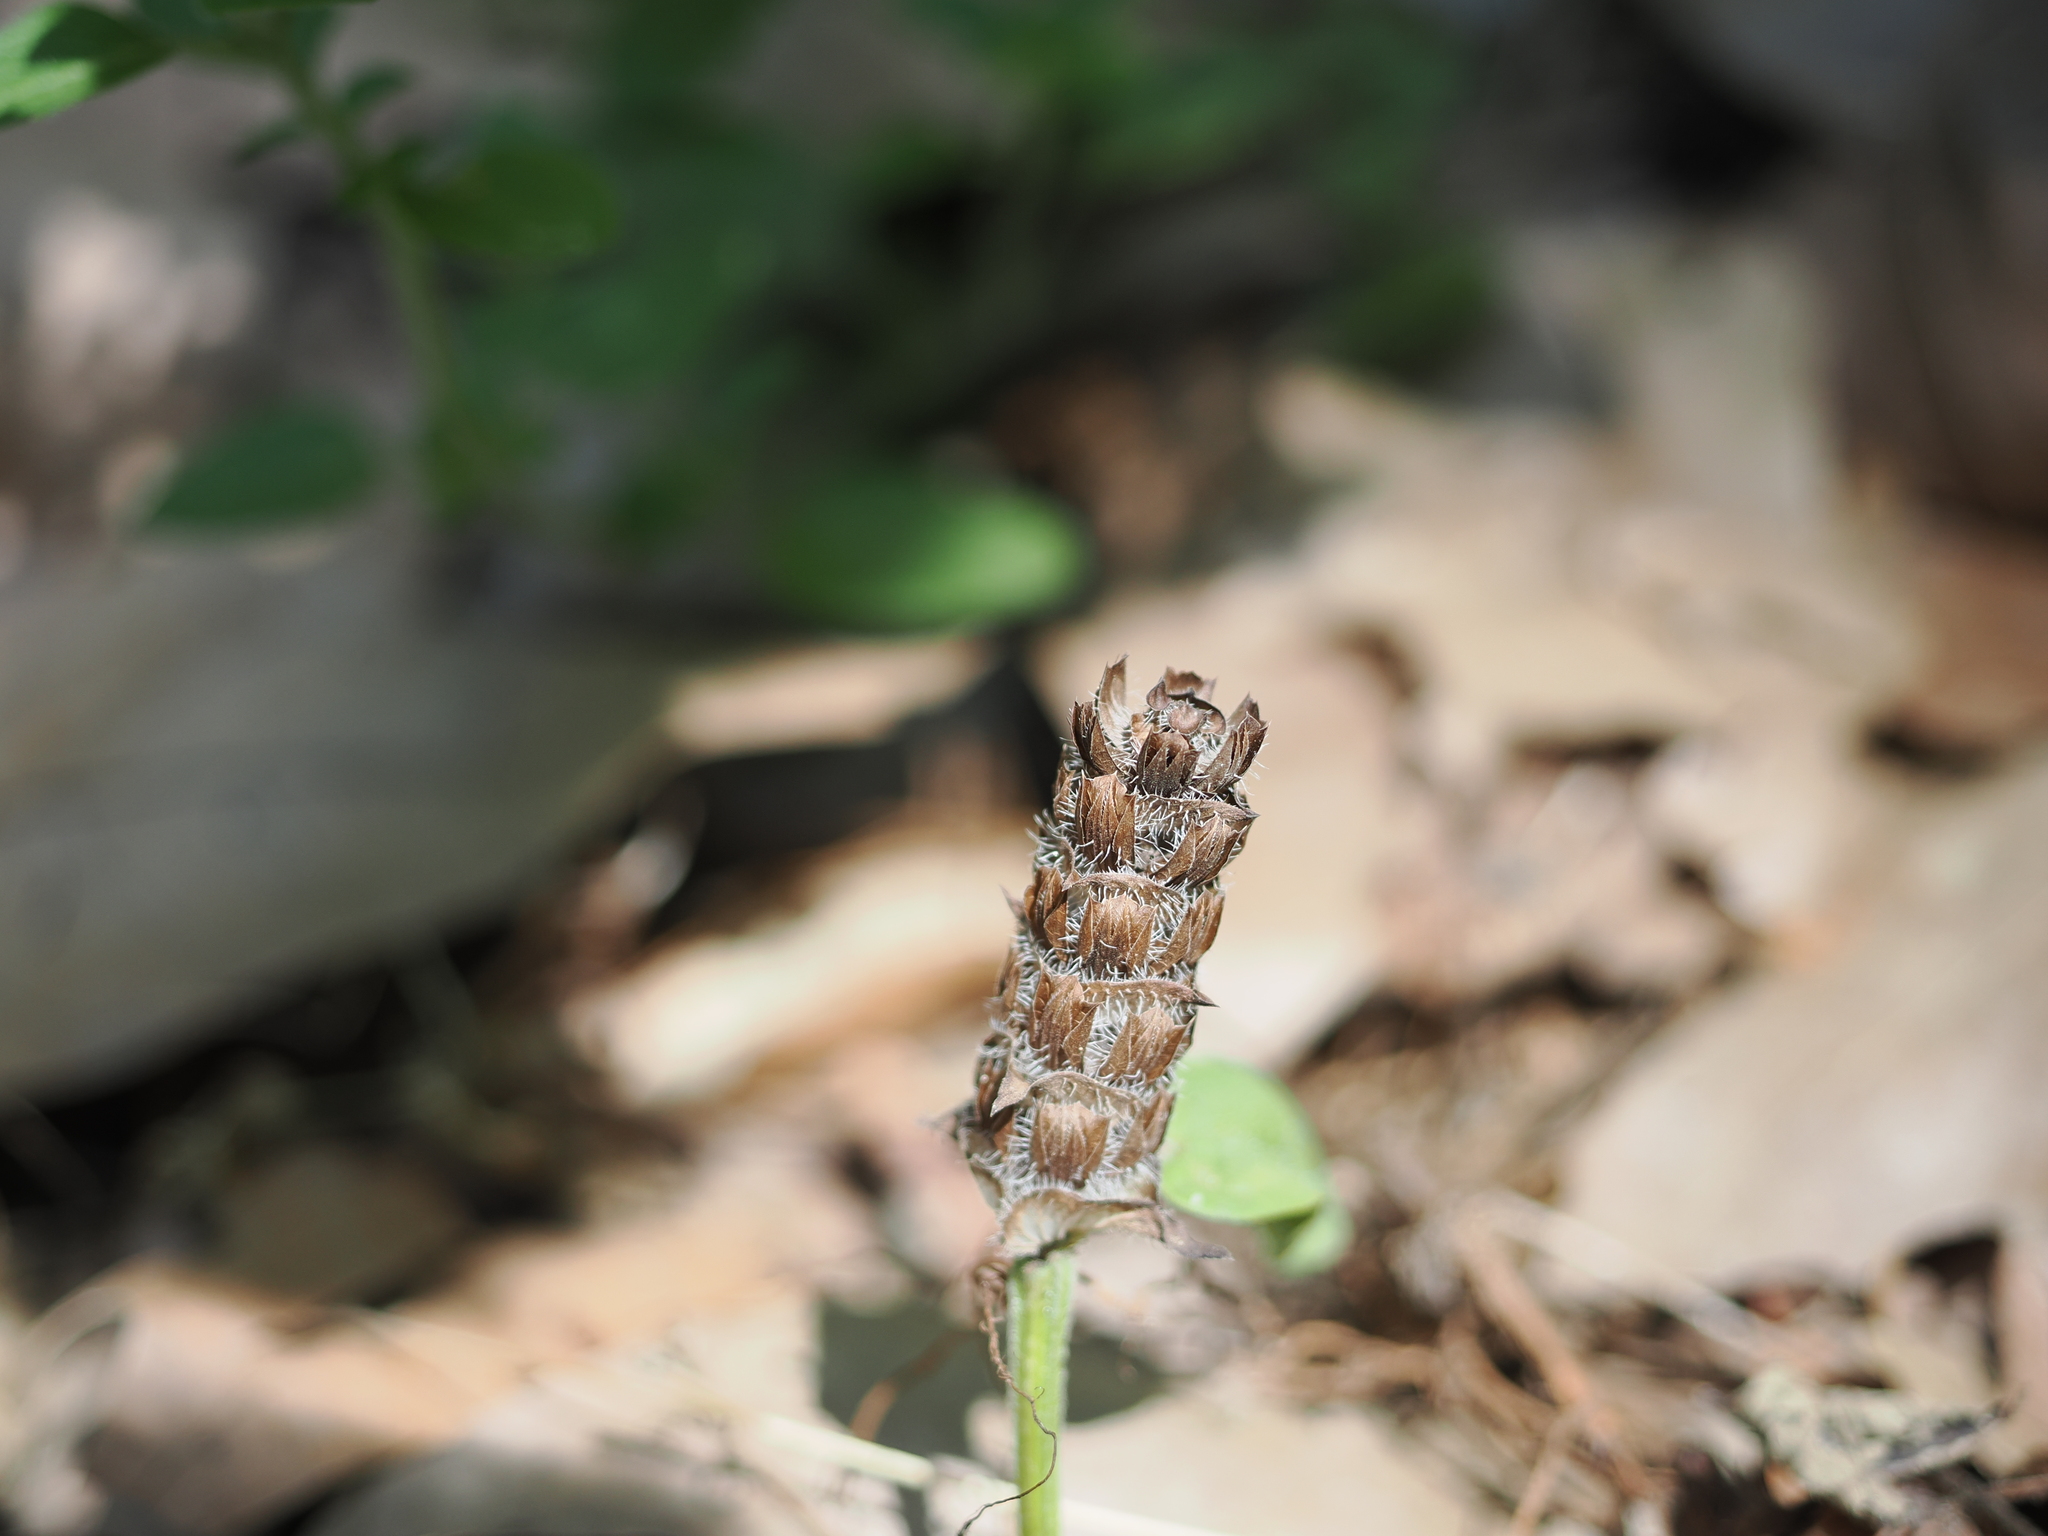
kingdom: Plantae
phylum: Tracheophyta
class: Magnoliopsida
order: Lamiales
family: Lamiaceae
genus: Prunella
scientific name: Prunella vulgaris
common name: Heal-all
